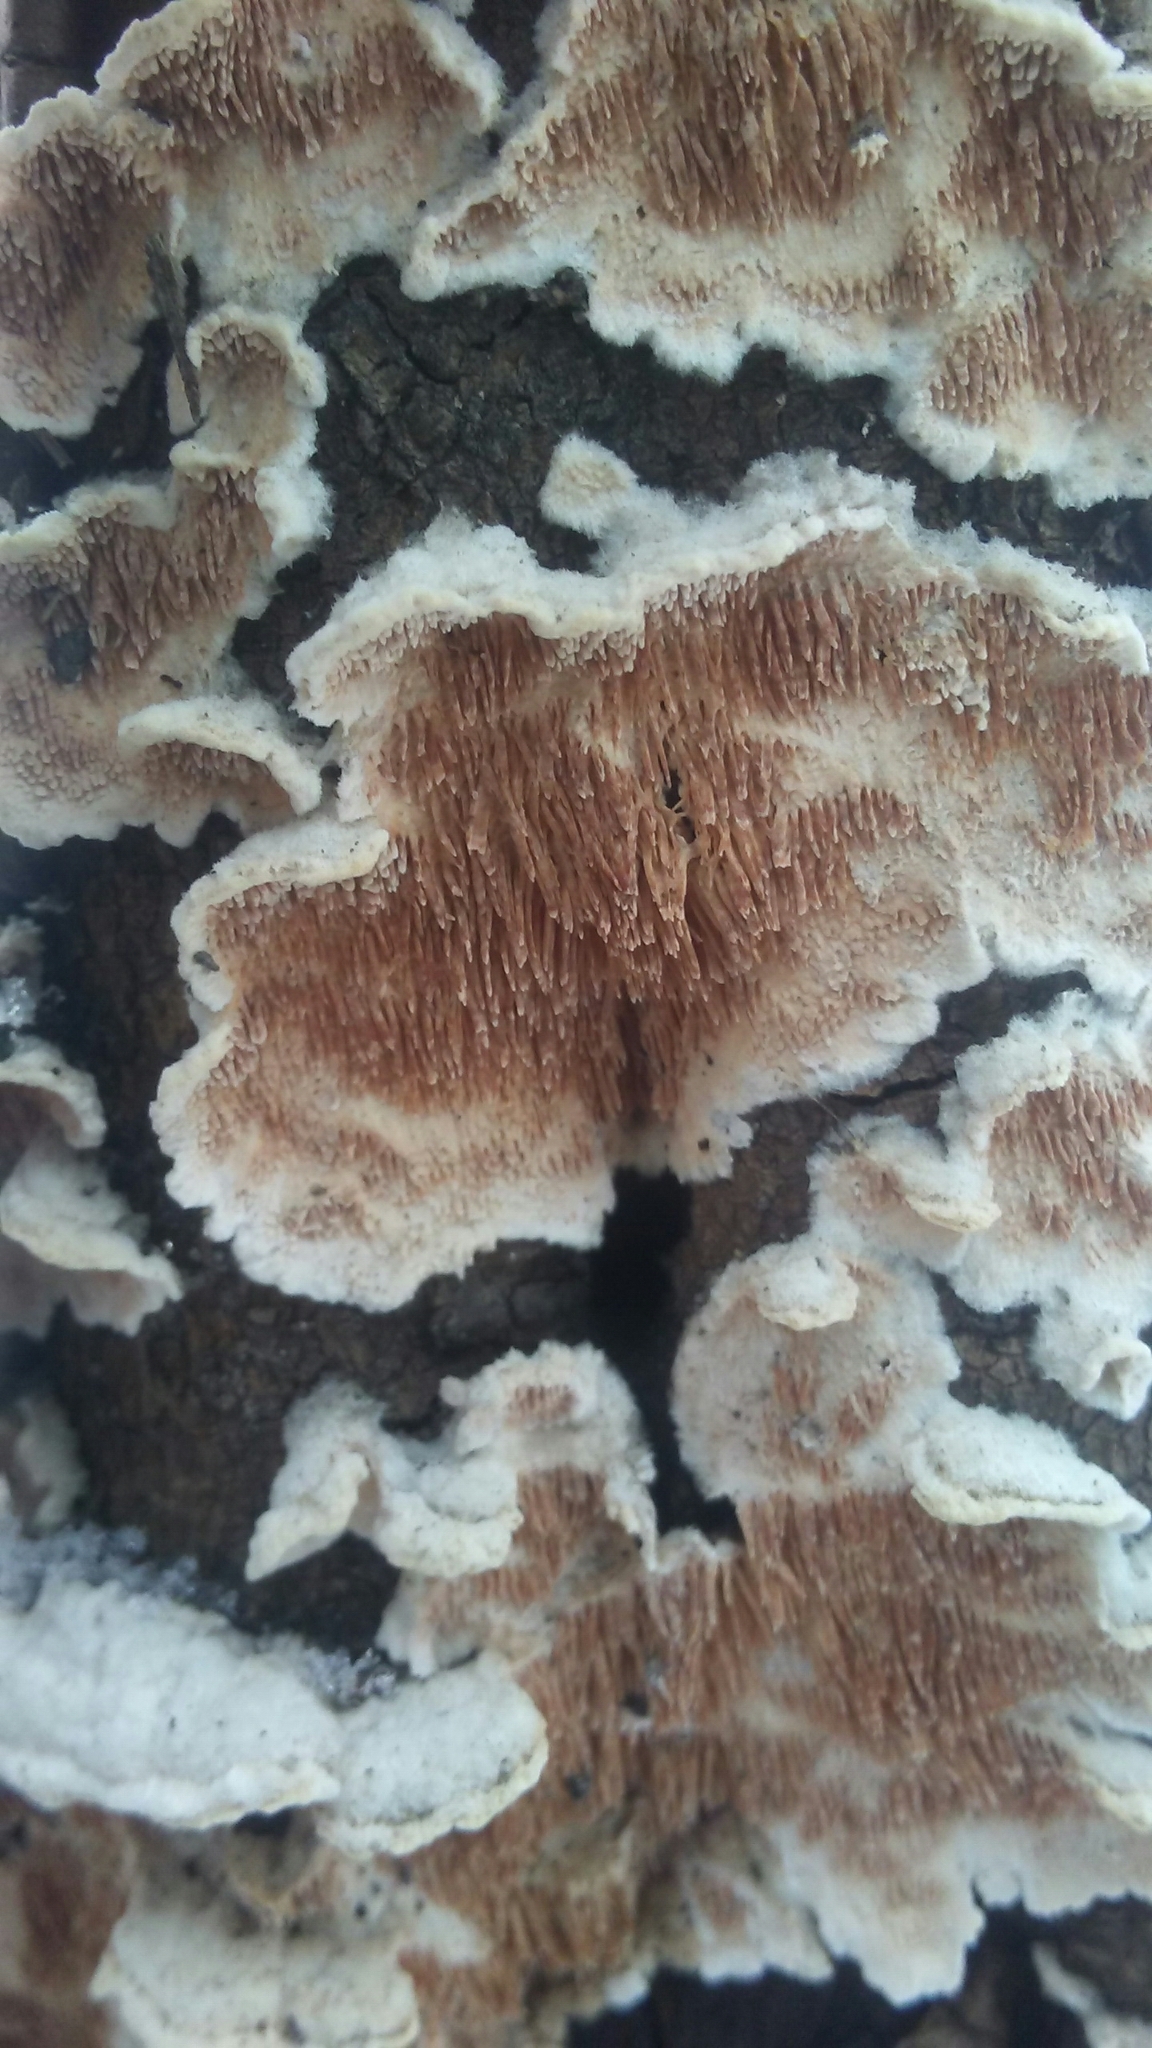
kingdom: Fungi
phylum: Basidiomycota
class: Agaricomycetes
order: Polyporales
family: Steccherinaceae
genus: Steccherinum
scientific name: Steccherinum ochraceum
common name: Ochre spreading tooth
